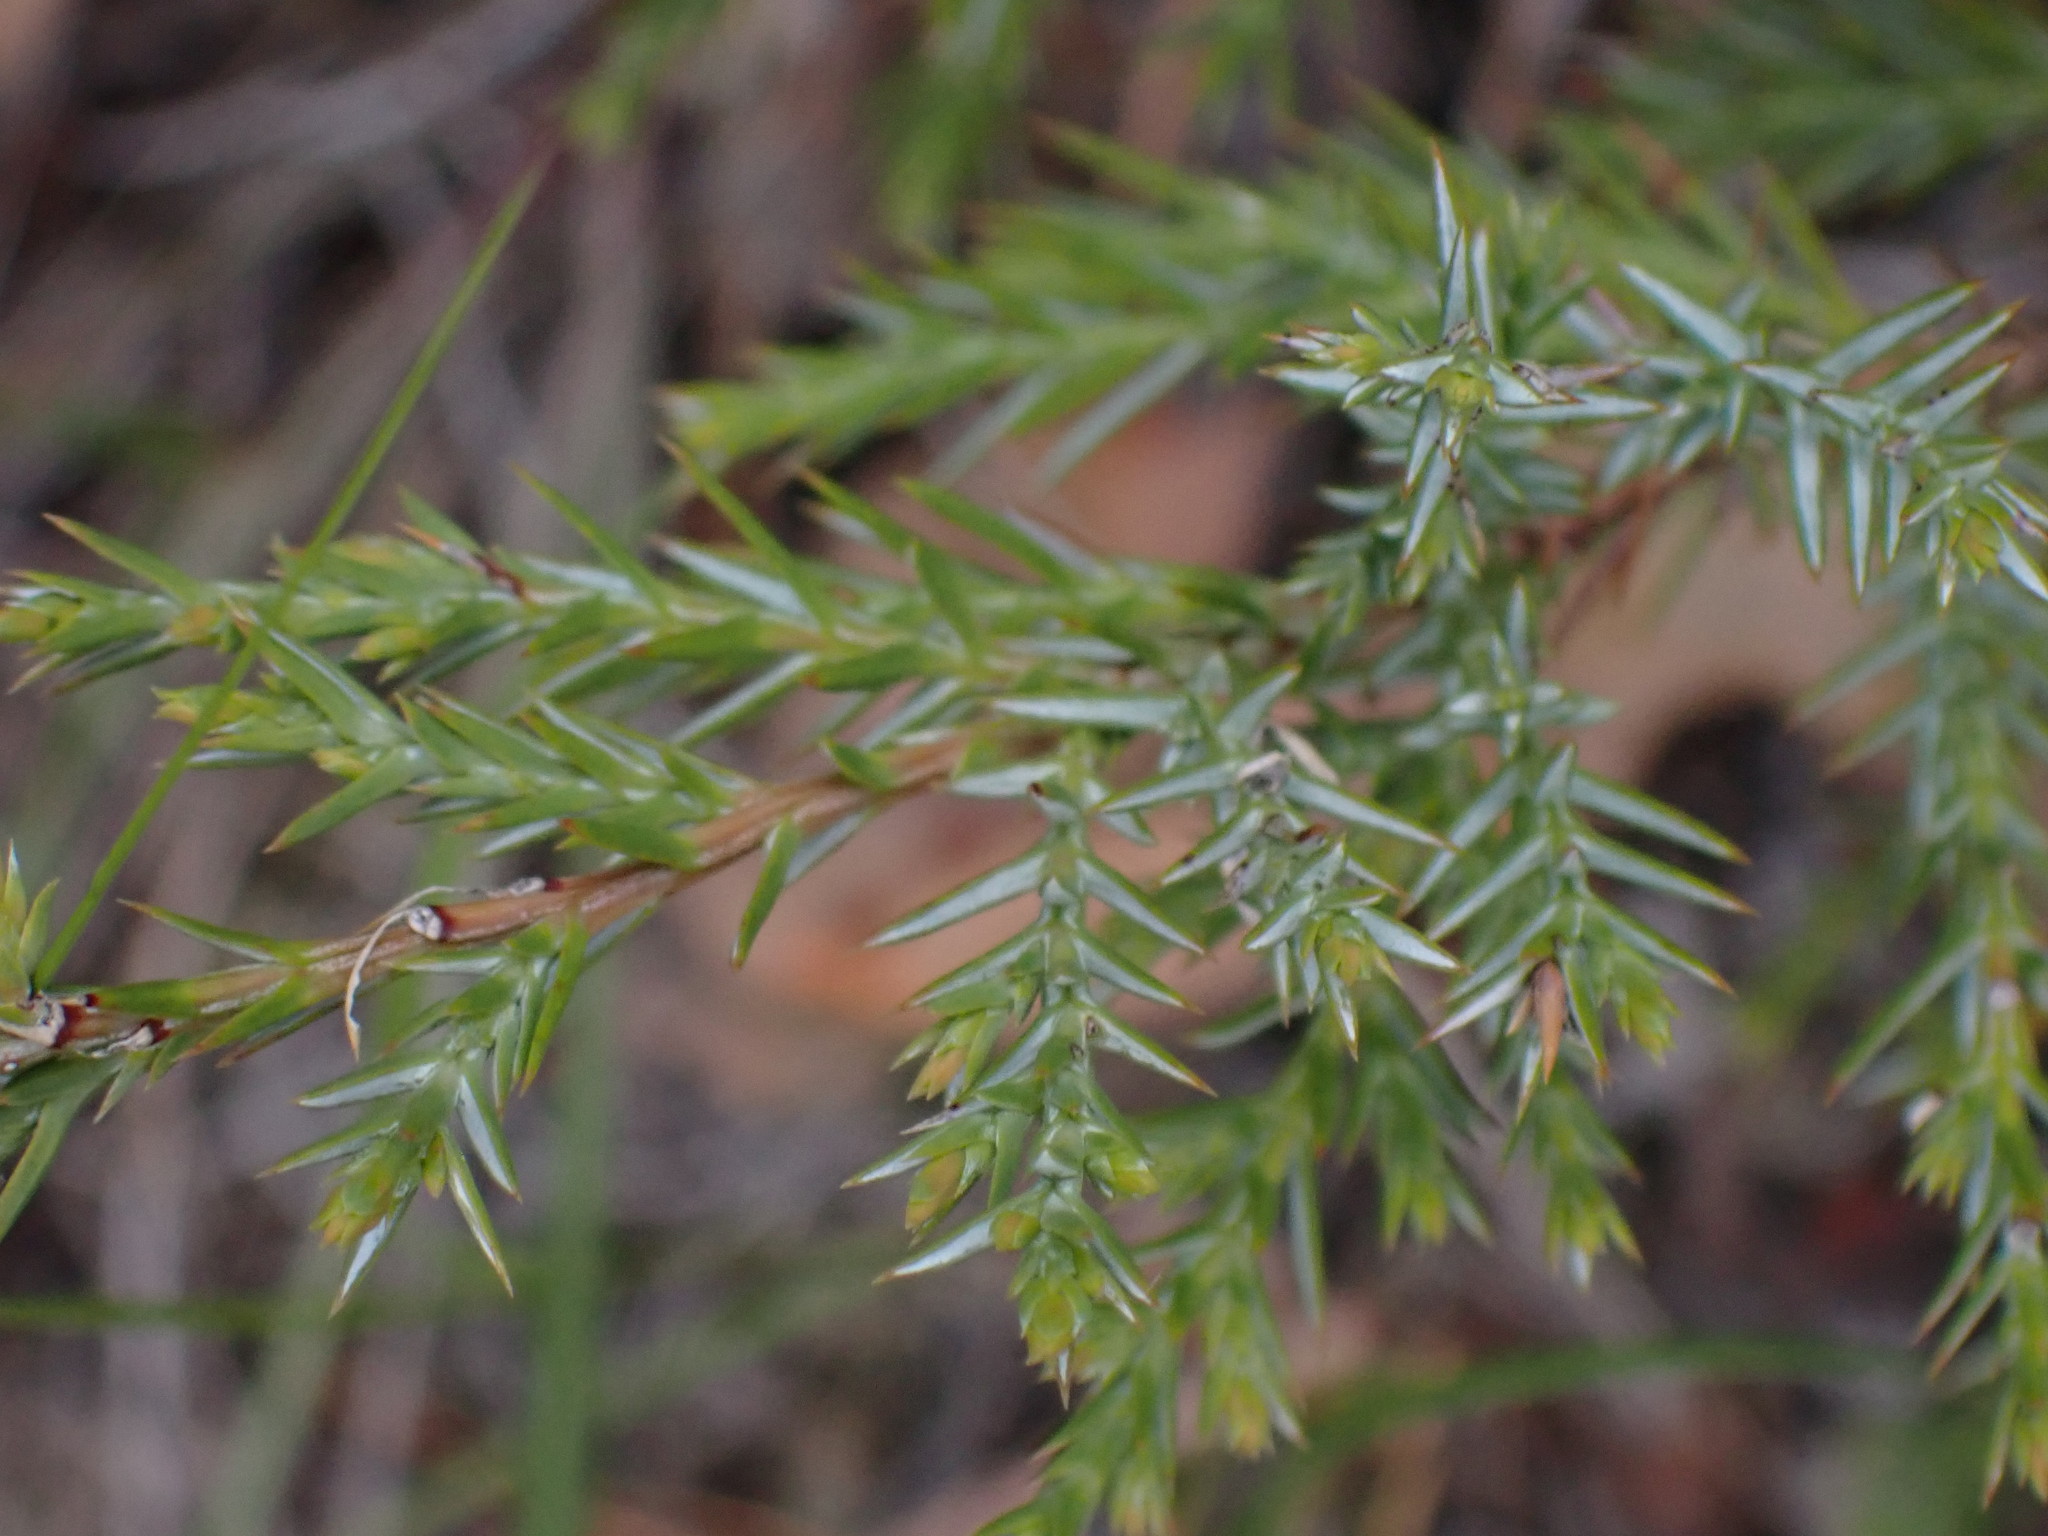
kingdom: Plantae
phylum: Tracheophyta
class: Pinopsida
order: Pinales
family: Cupressaceae
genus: Juniperus
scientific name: Juniperus communis
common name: Common juniper
